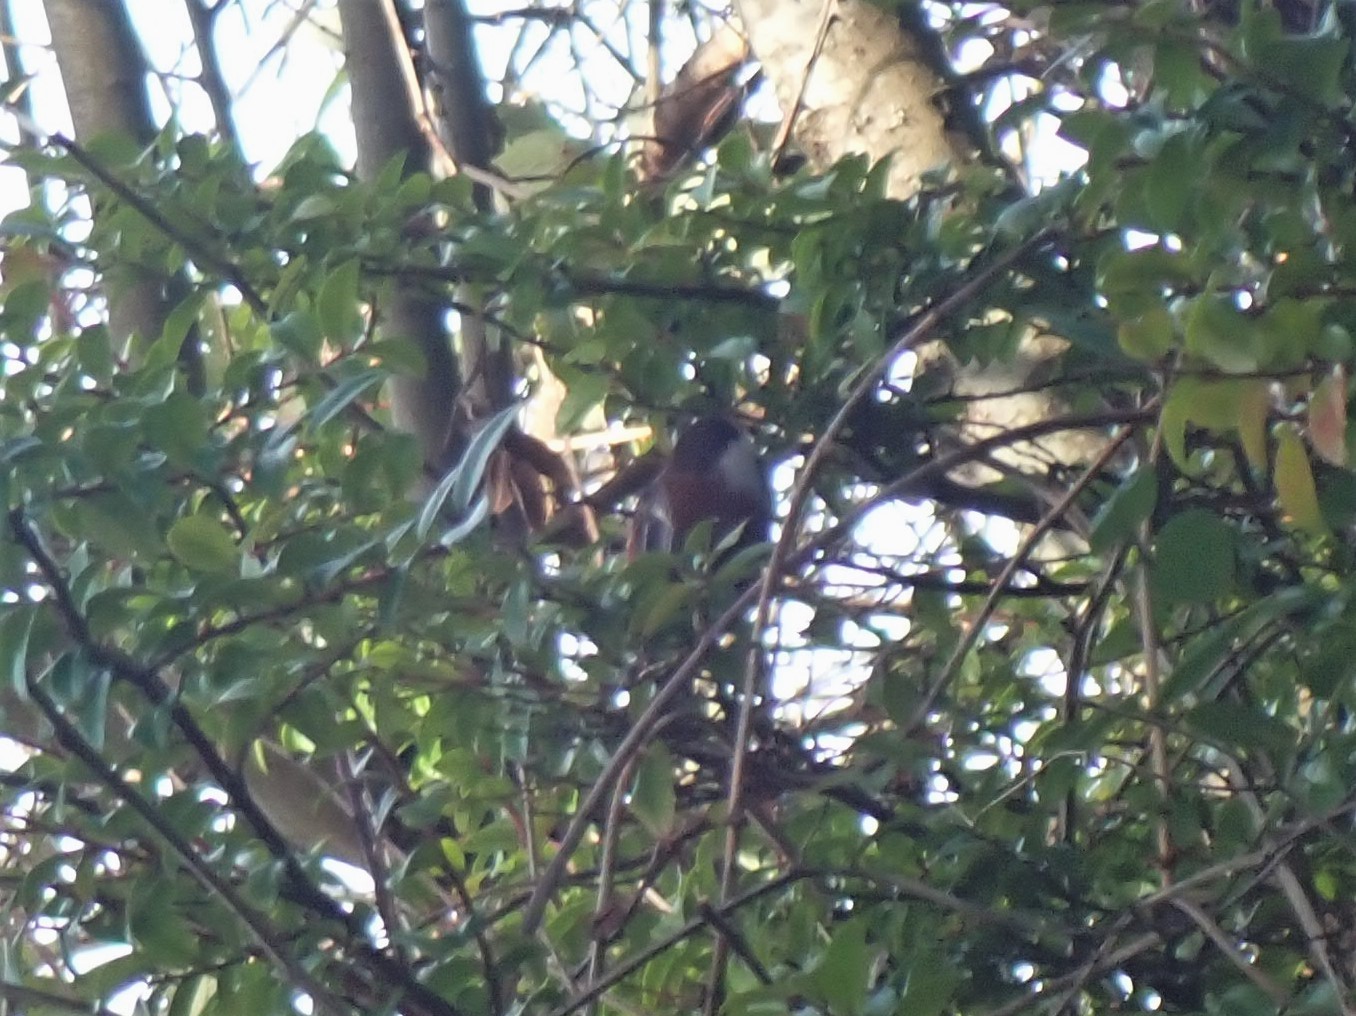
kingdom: Animalia
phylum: Chordata
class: Aves
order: Passeriformes
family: Paridae
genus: Poecile
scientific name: Poecile rufescens
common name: Chestnut-backed chickadee
